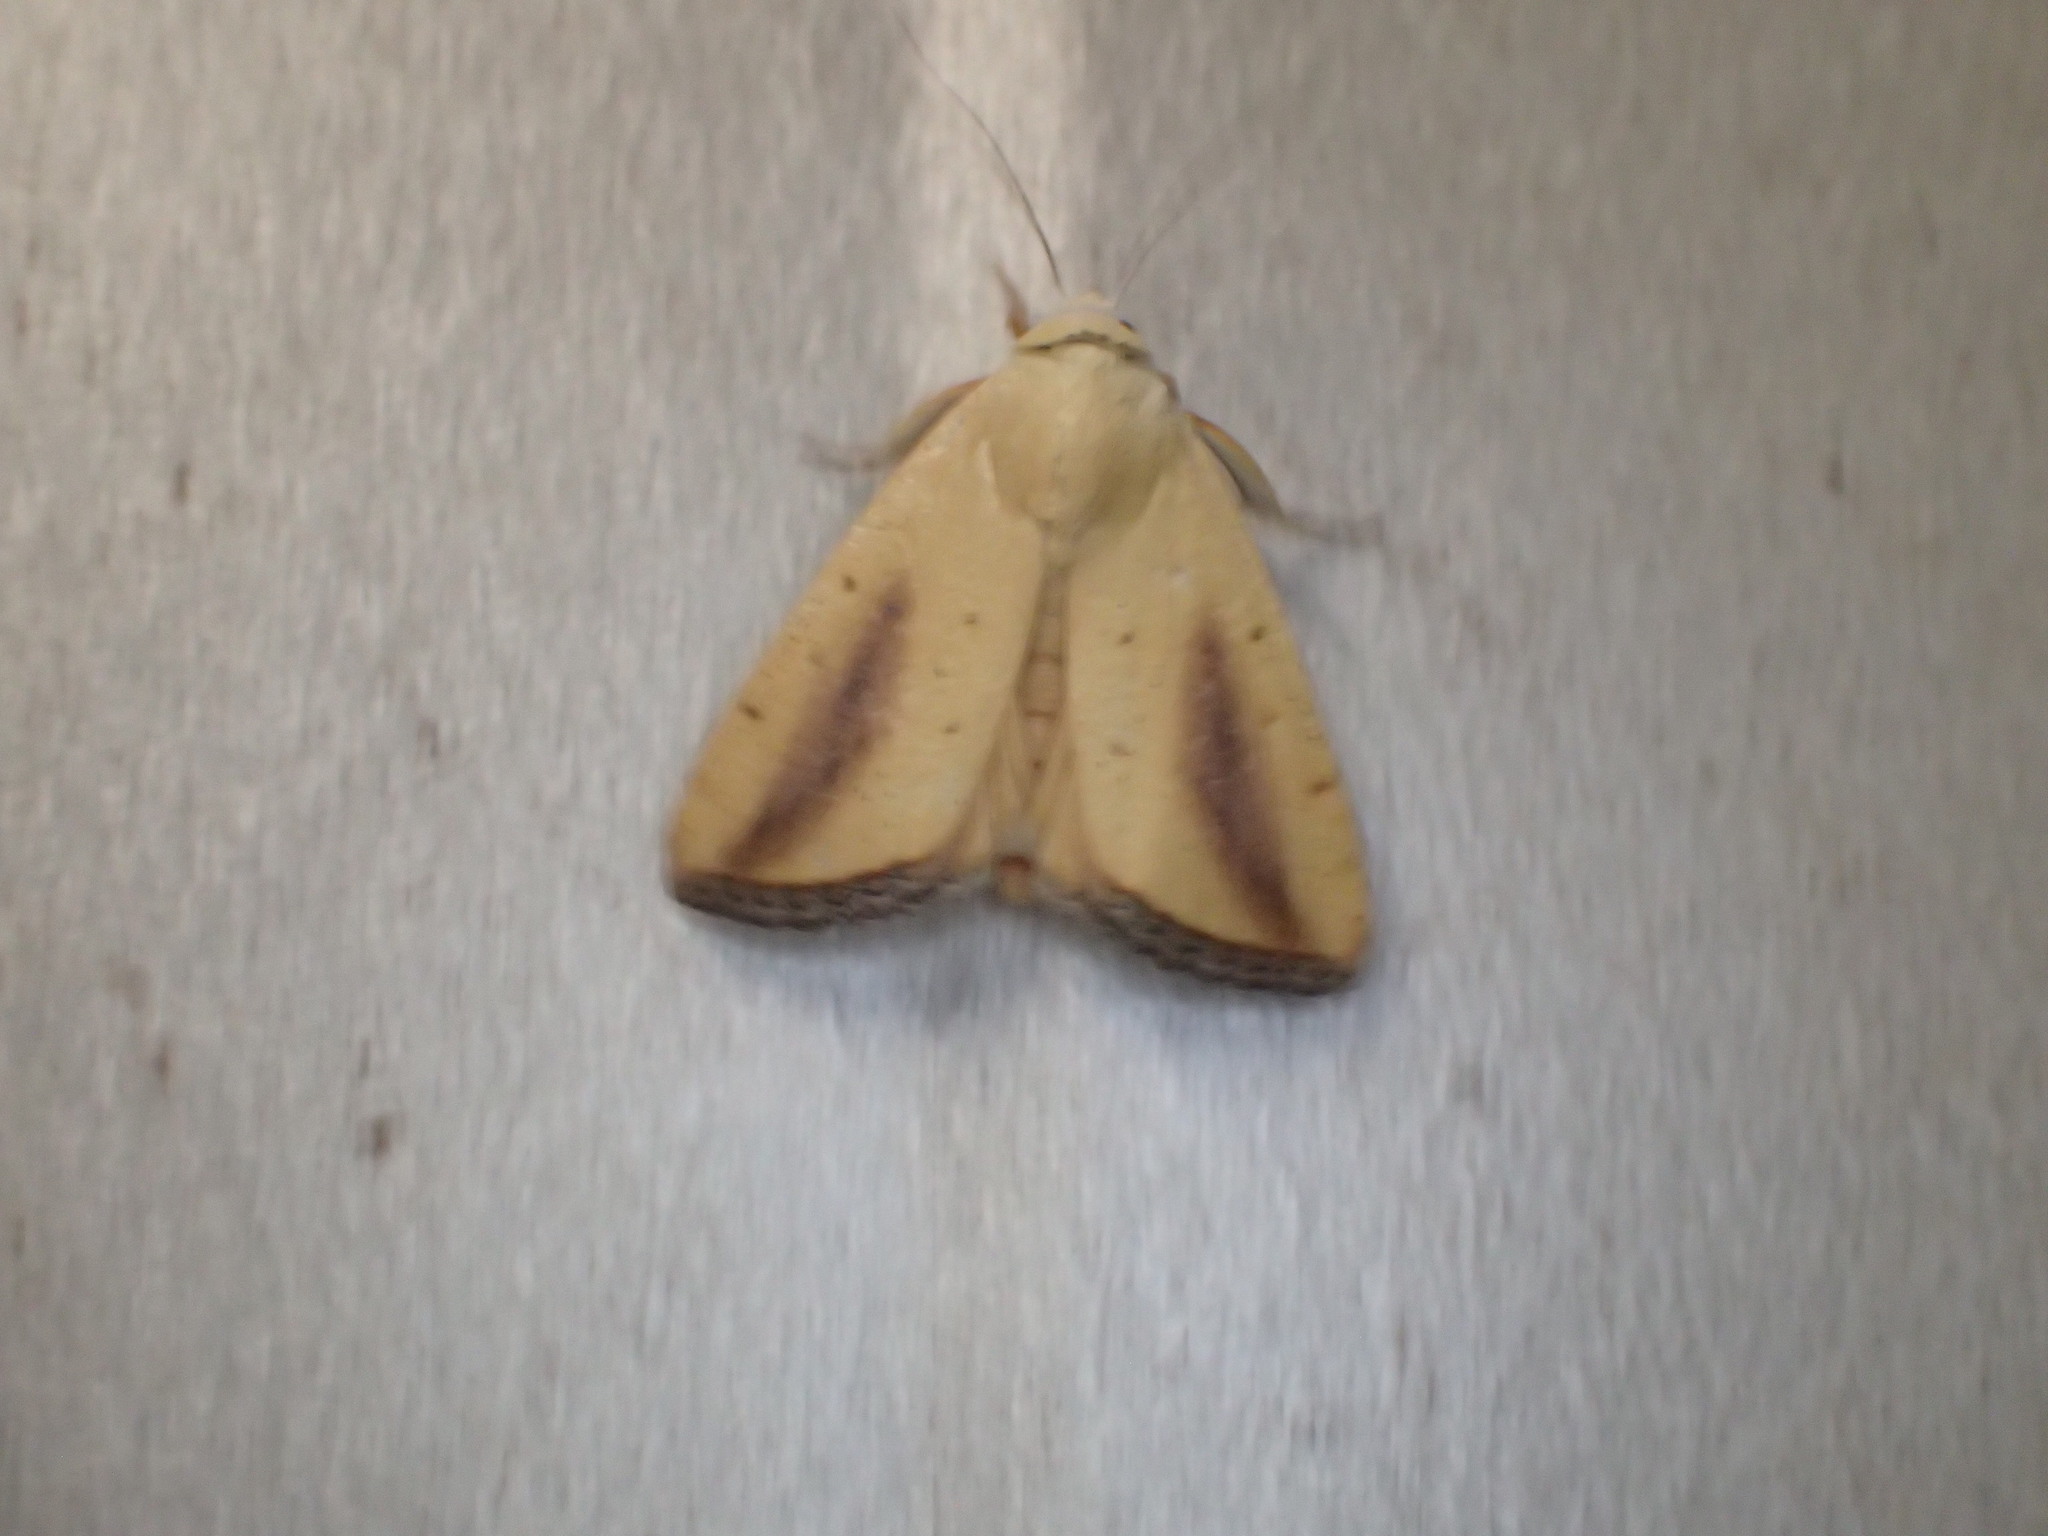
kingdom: Animalia
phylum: Arthropoda
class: Insecta
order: Lepidoptera
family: Nolidae
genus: Xanthodes
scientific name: Xanthodes congenita
